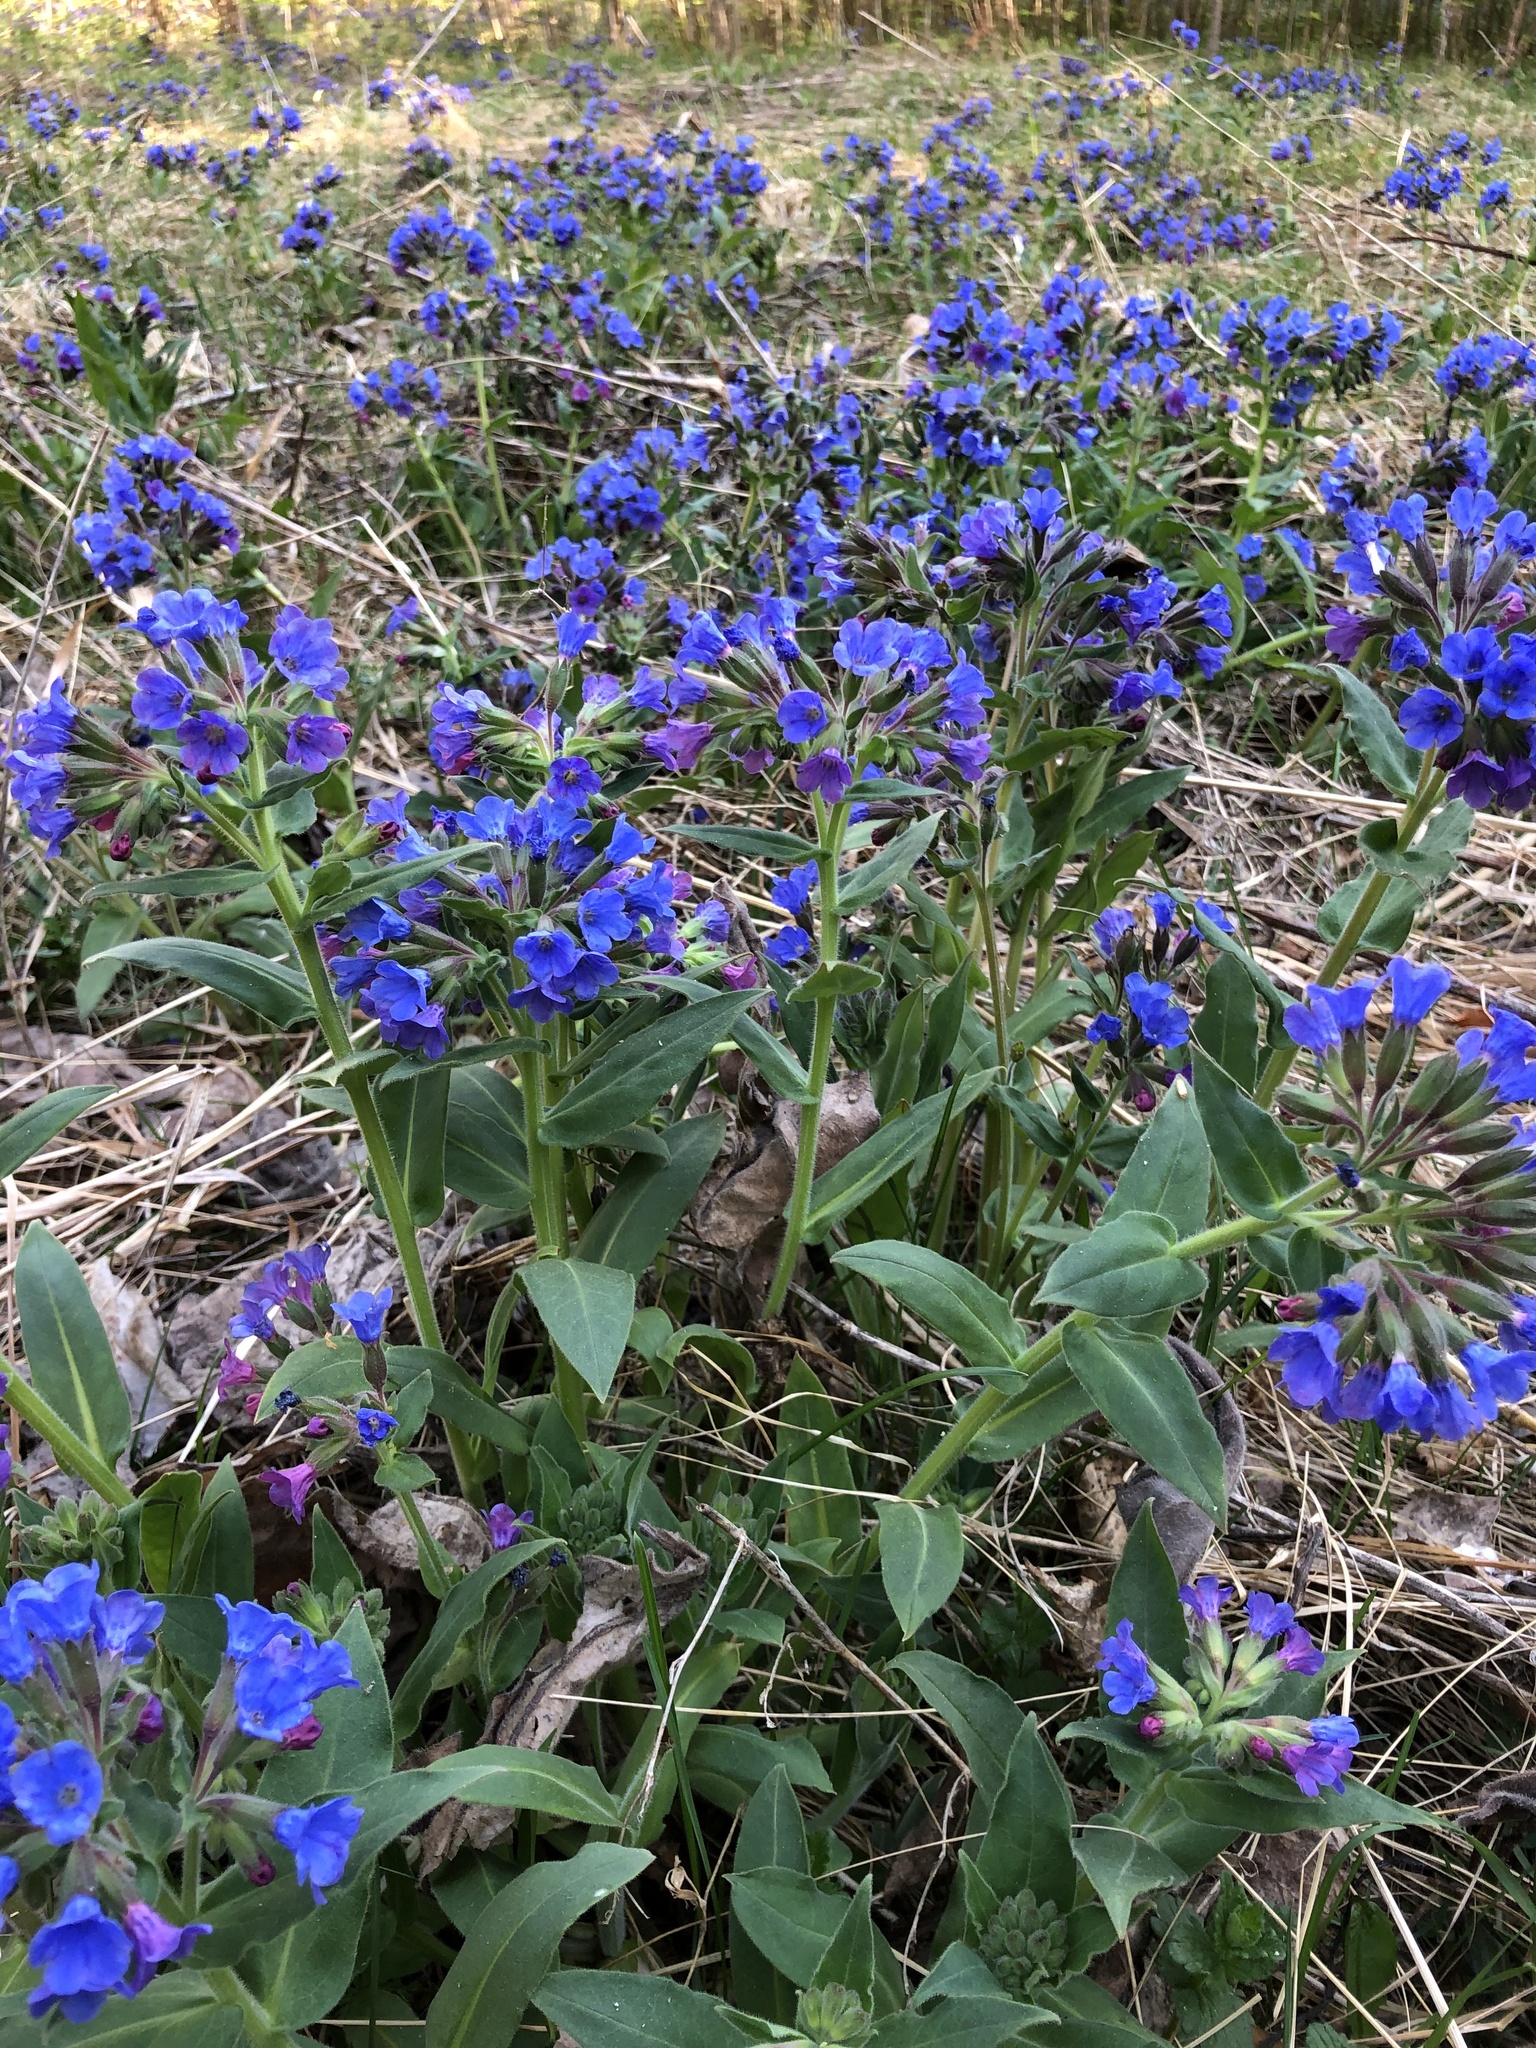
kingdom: Plantae
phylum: Tracheophyta
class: Magnoliopsida
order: Boraginales
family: Boraginaceae
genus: Pulmonaria
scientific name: Pulmonaria mollis
